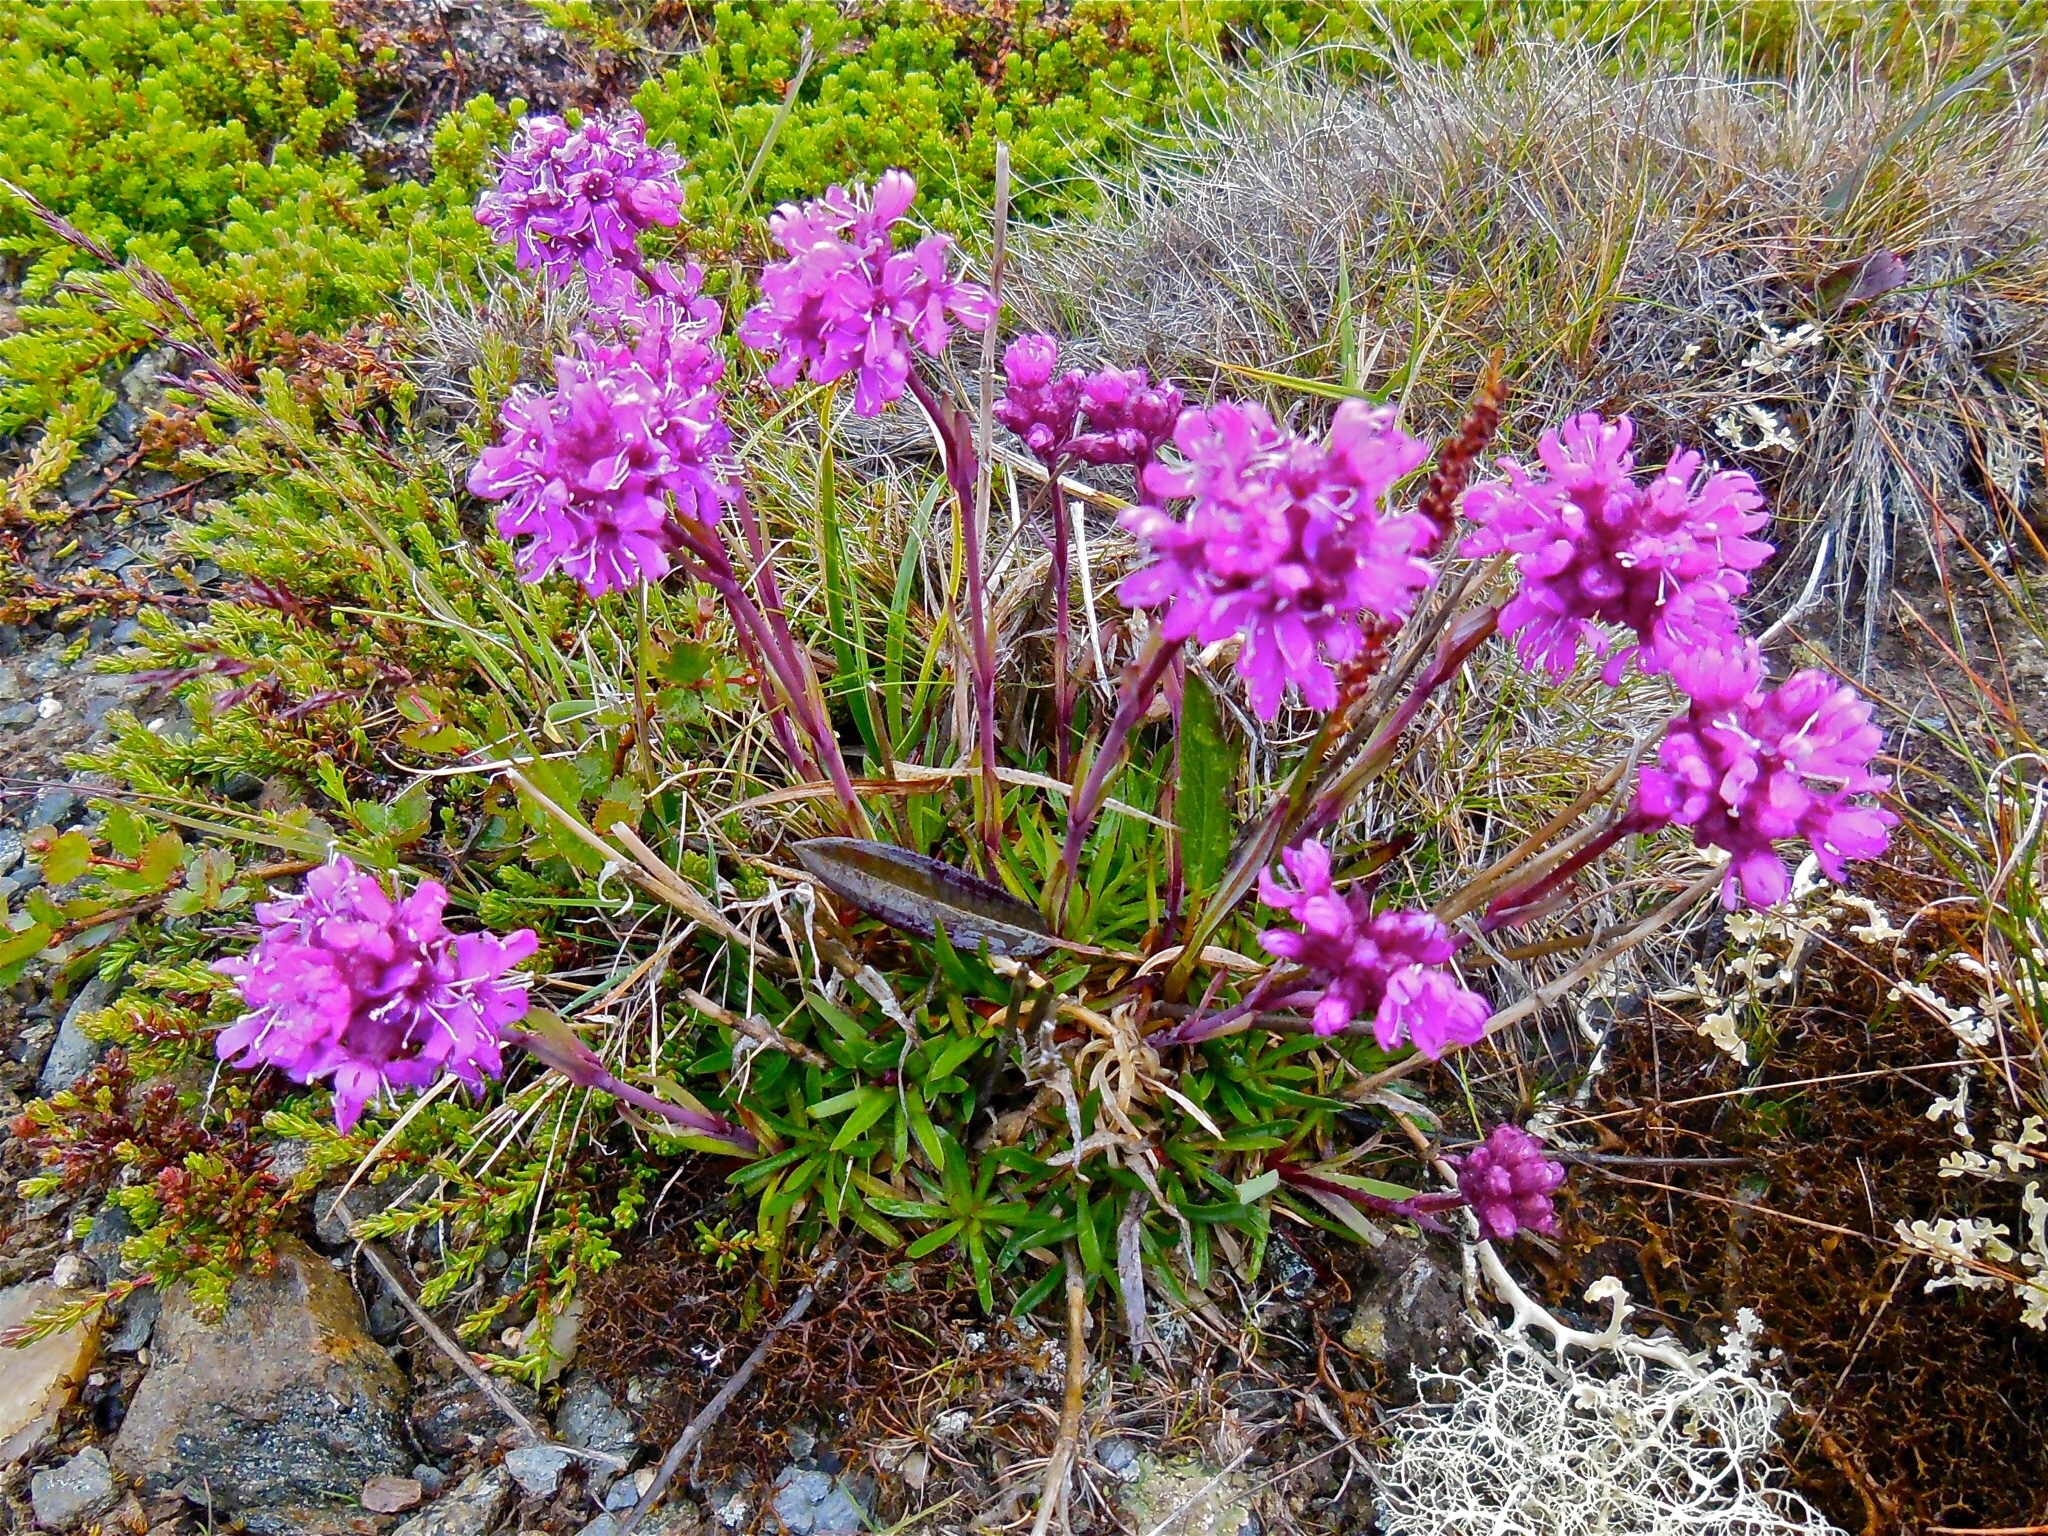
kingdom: Plantae
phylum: Tracheophyta
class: Magnoliopsida
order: Caryophyllales
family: Caryophyllaceae
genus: Viscaria
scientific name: Viscaria alpina
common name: Alpine campion
